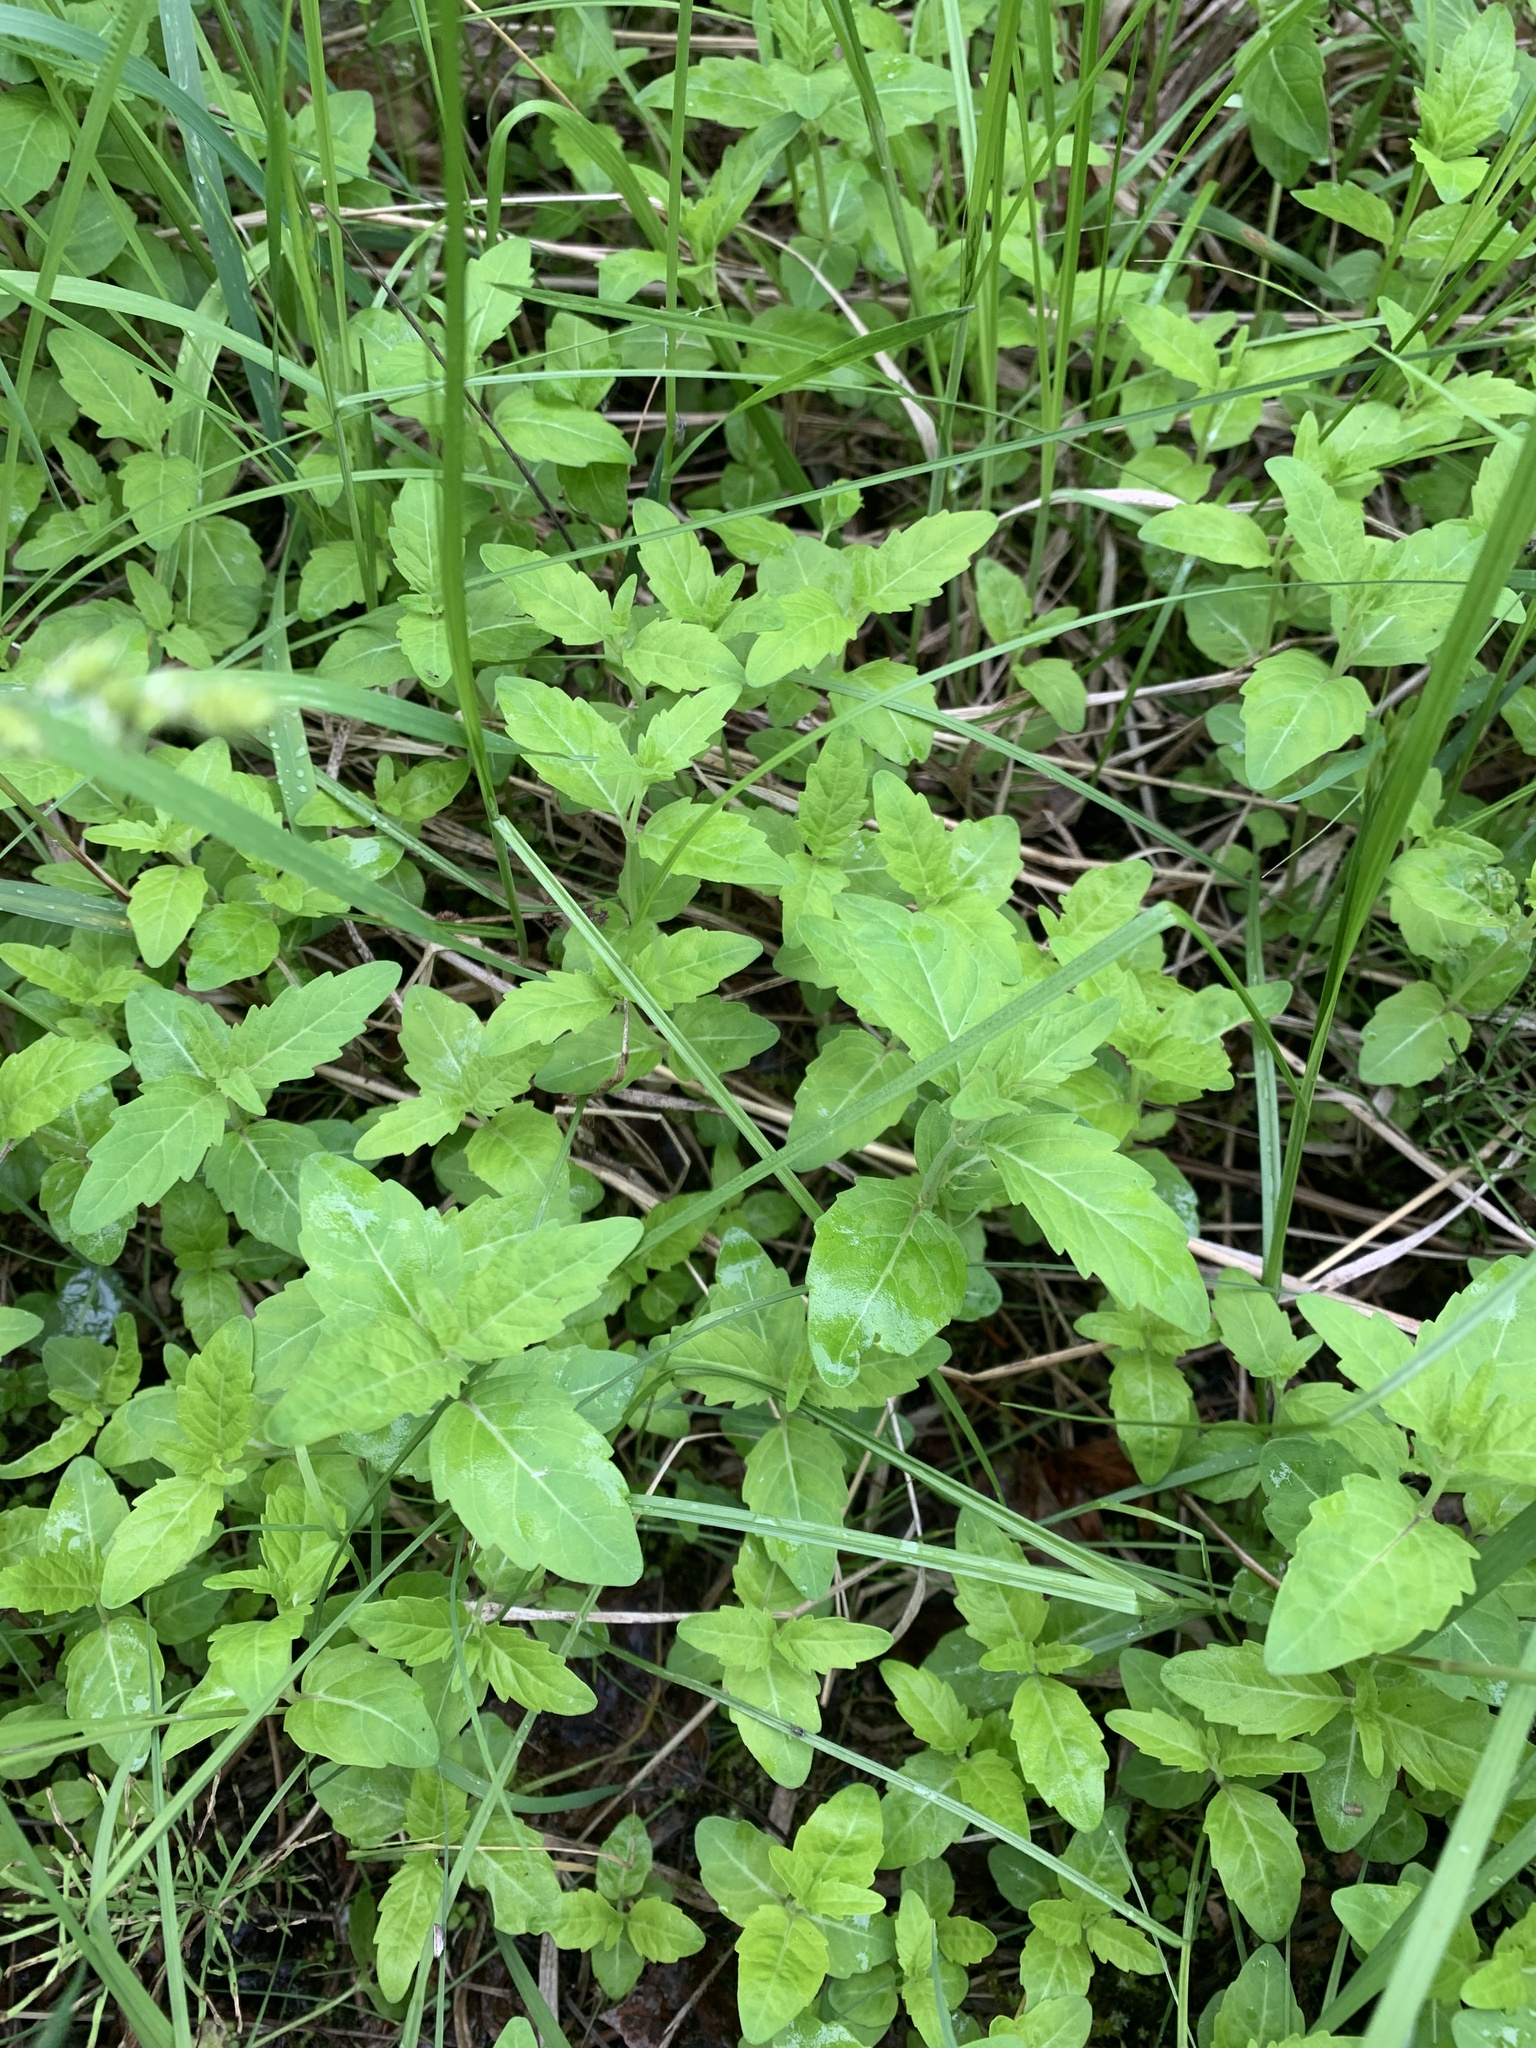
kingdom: Plantae
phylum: Tracheophyta
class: Magnoliopsida
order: Lamiales
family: Lamiaceae
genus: Mentha
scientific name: Mentha canadensis
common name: American corn mint
